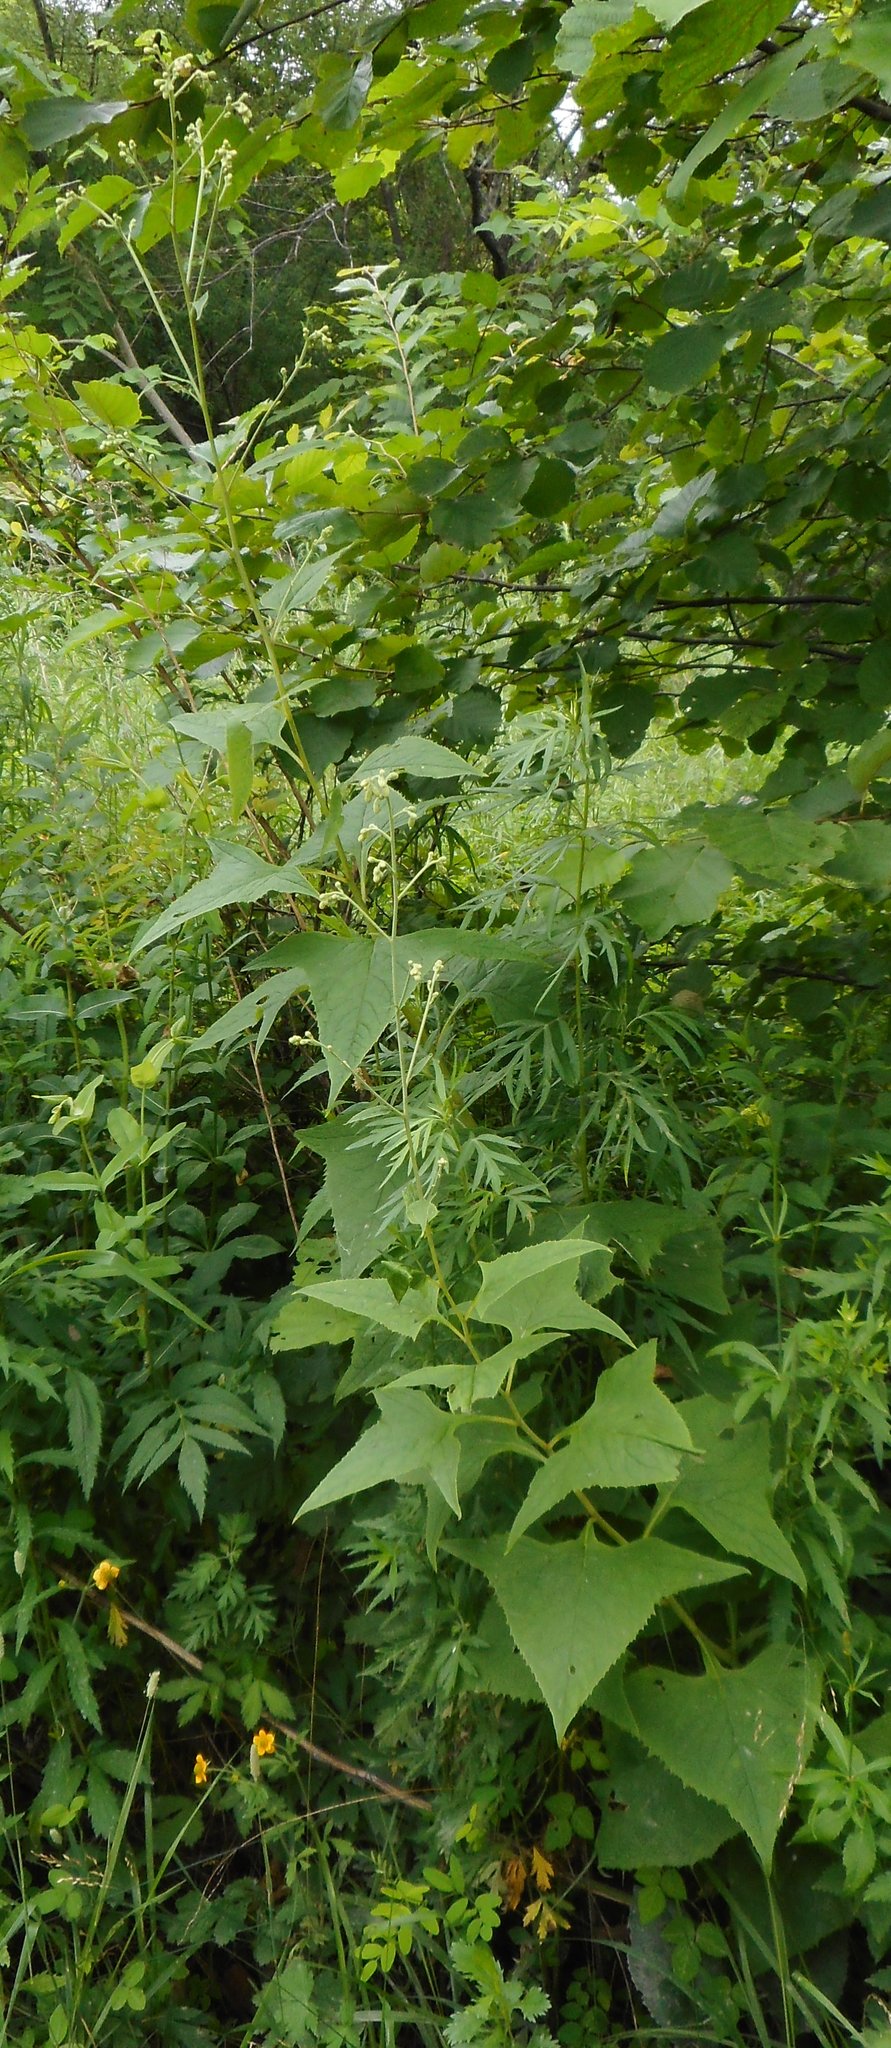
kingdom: Plantae
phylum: Tracheophyta
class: Magnoliopsida
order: Asterales
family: Asteraceae
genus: Parasenecio
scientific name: Parasenecio hastatus
